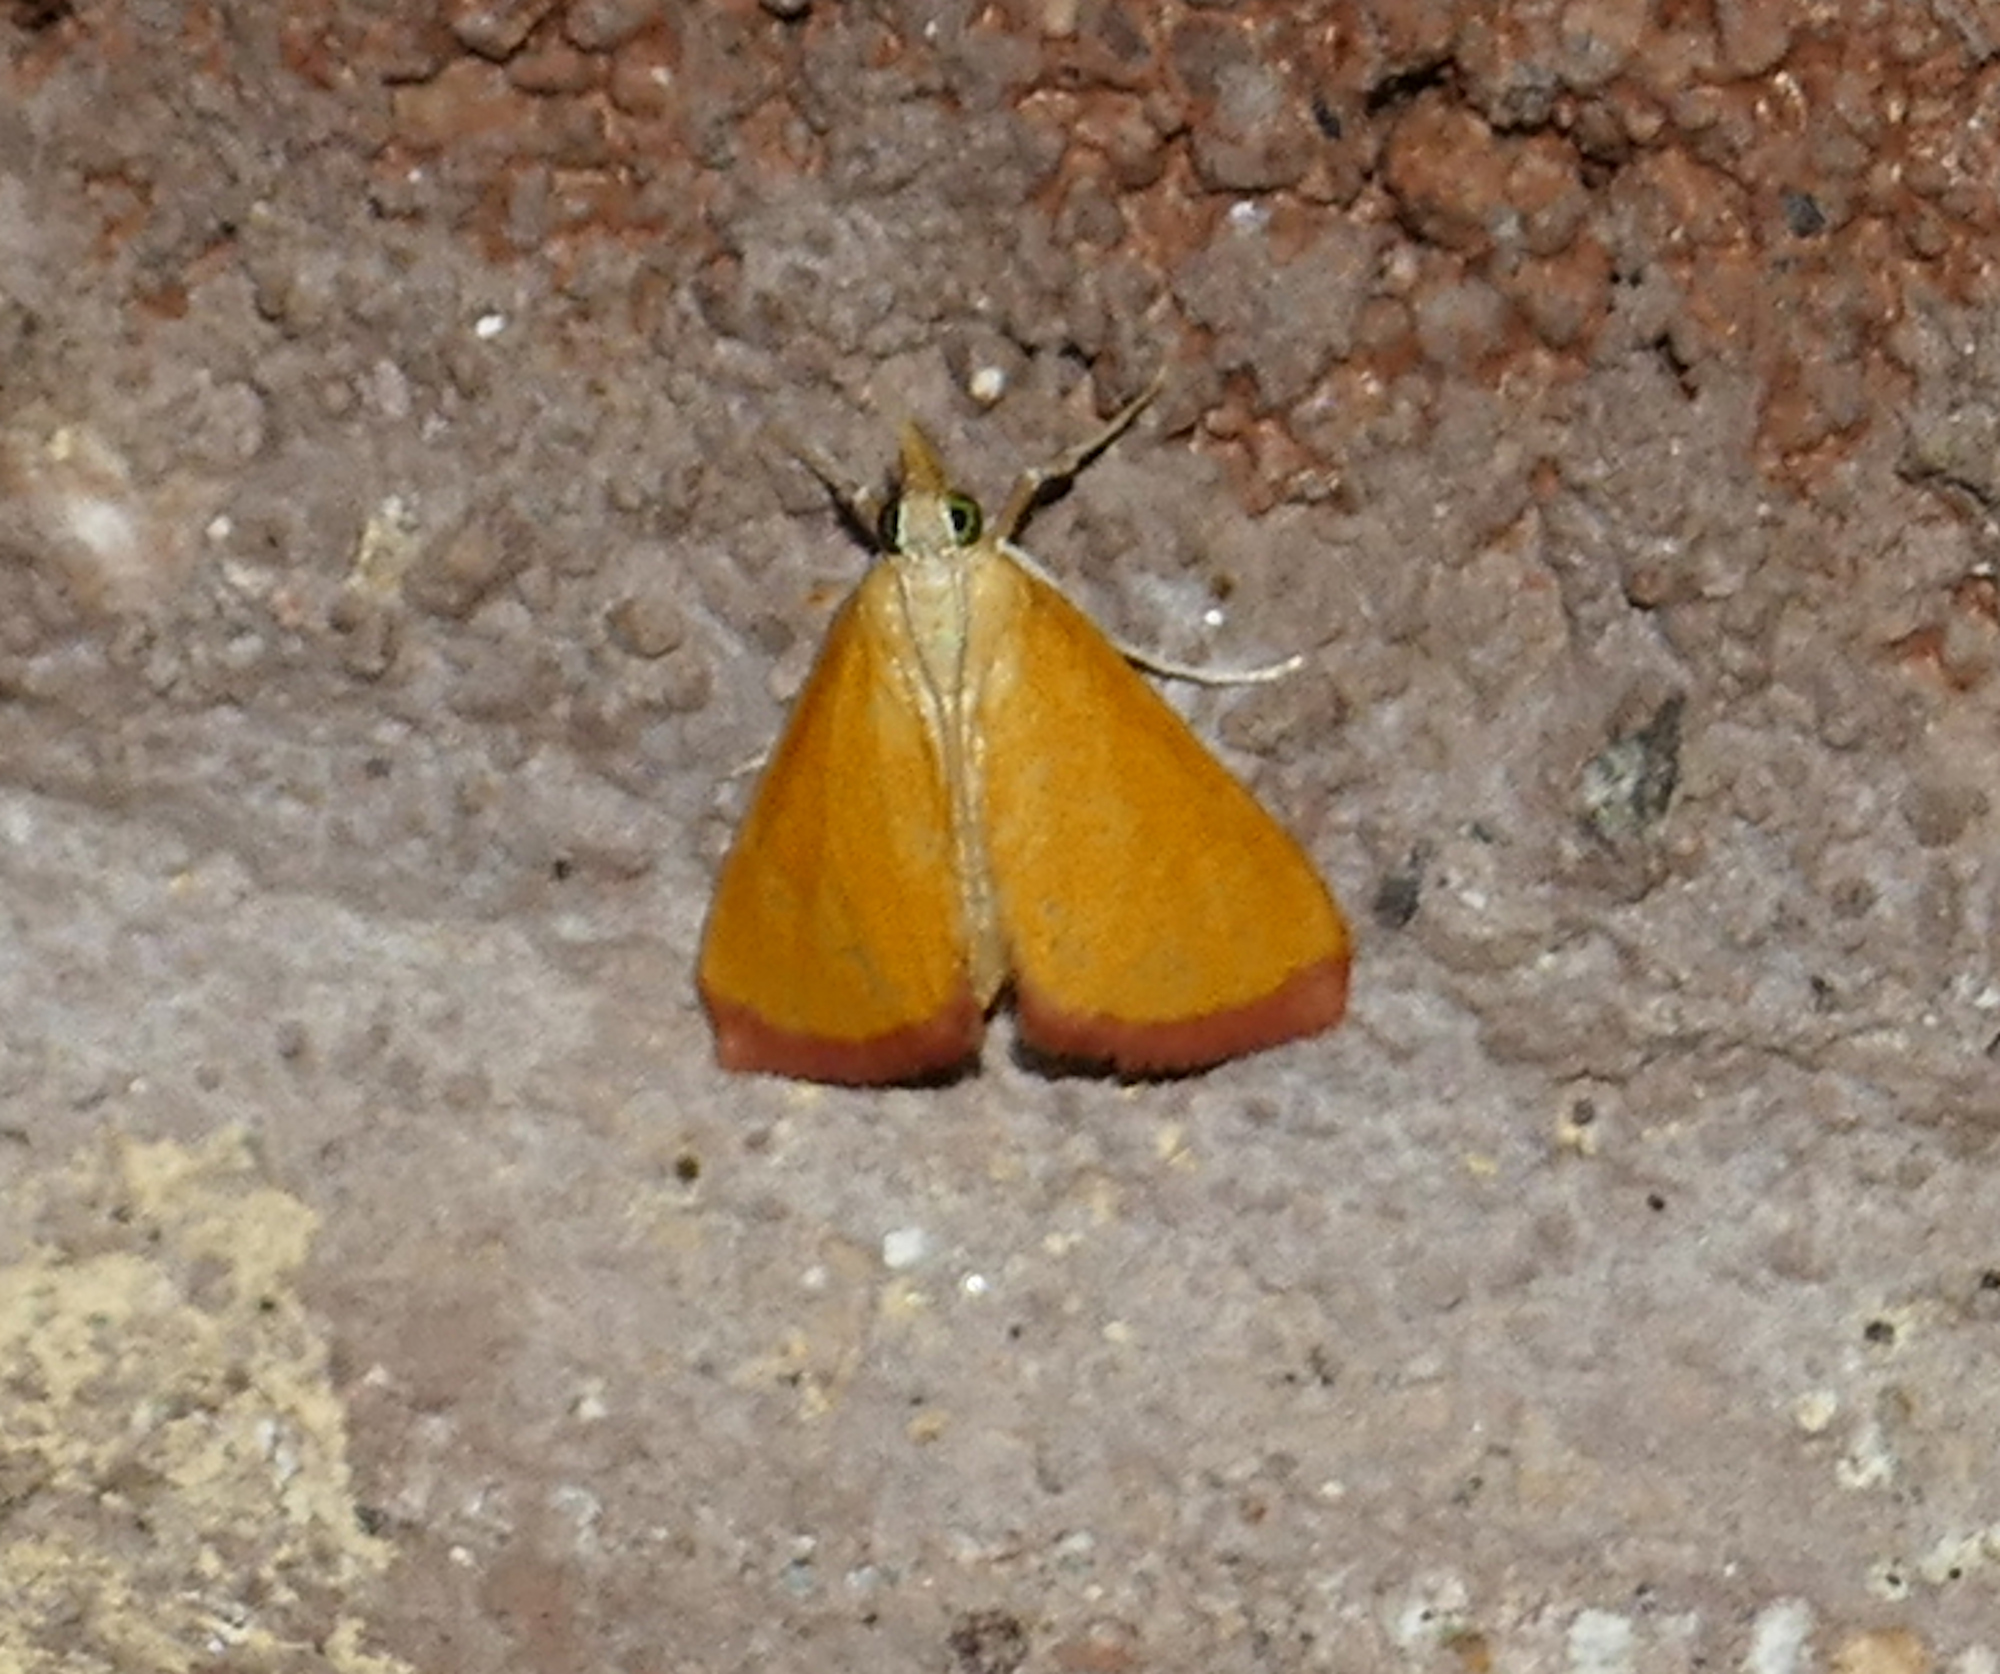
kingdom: Animalia
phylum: Arthropoda
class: Insecta
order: Lepidoptera
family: Crambidae
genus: Xanthostege
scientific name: Xanthostege plana
